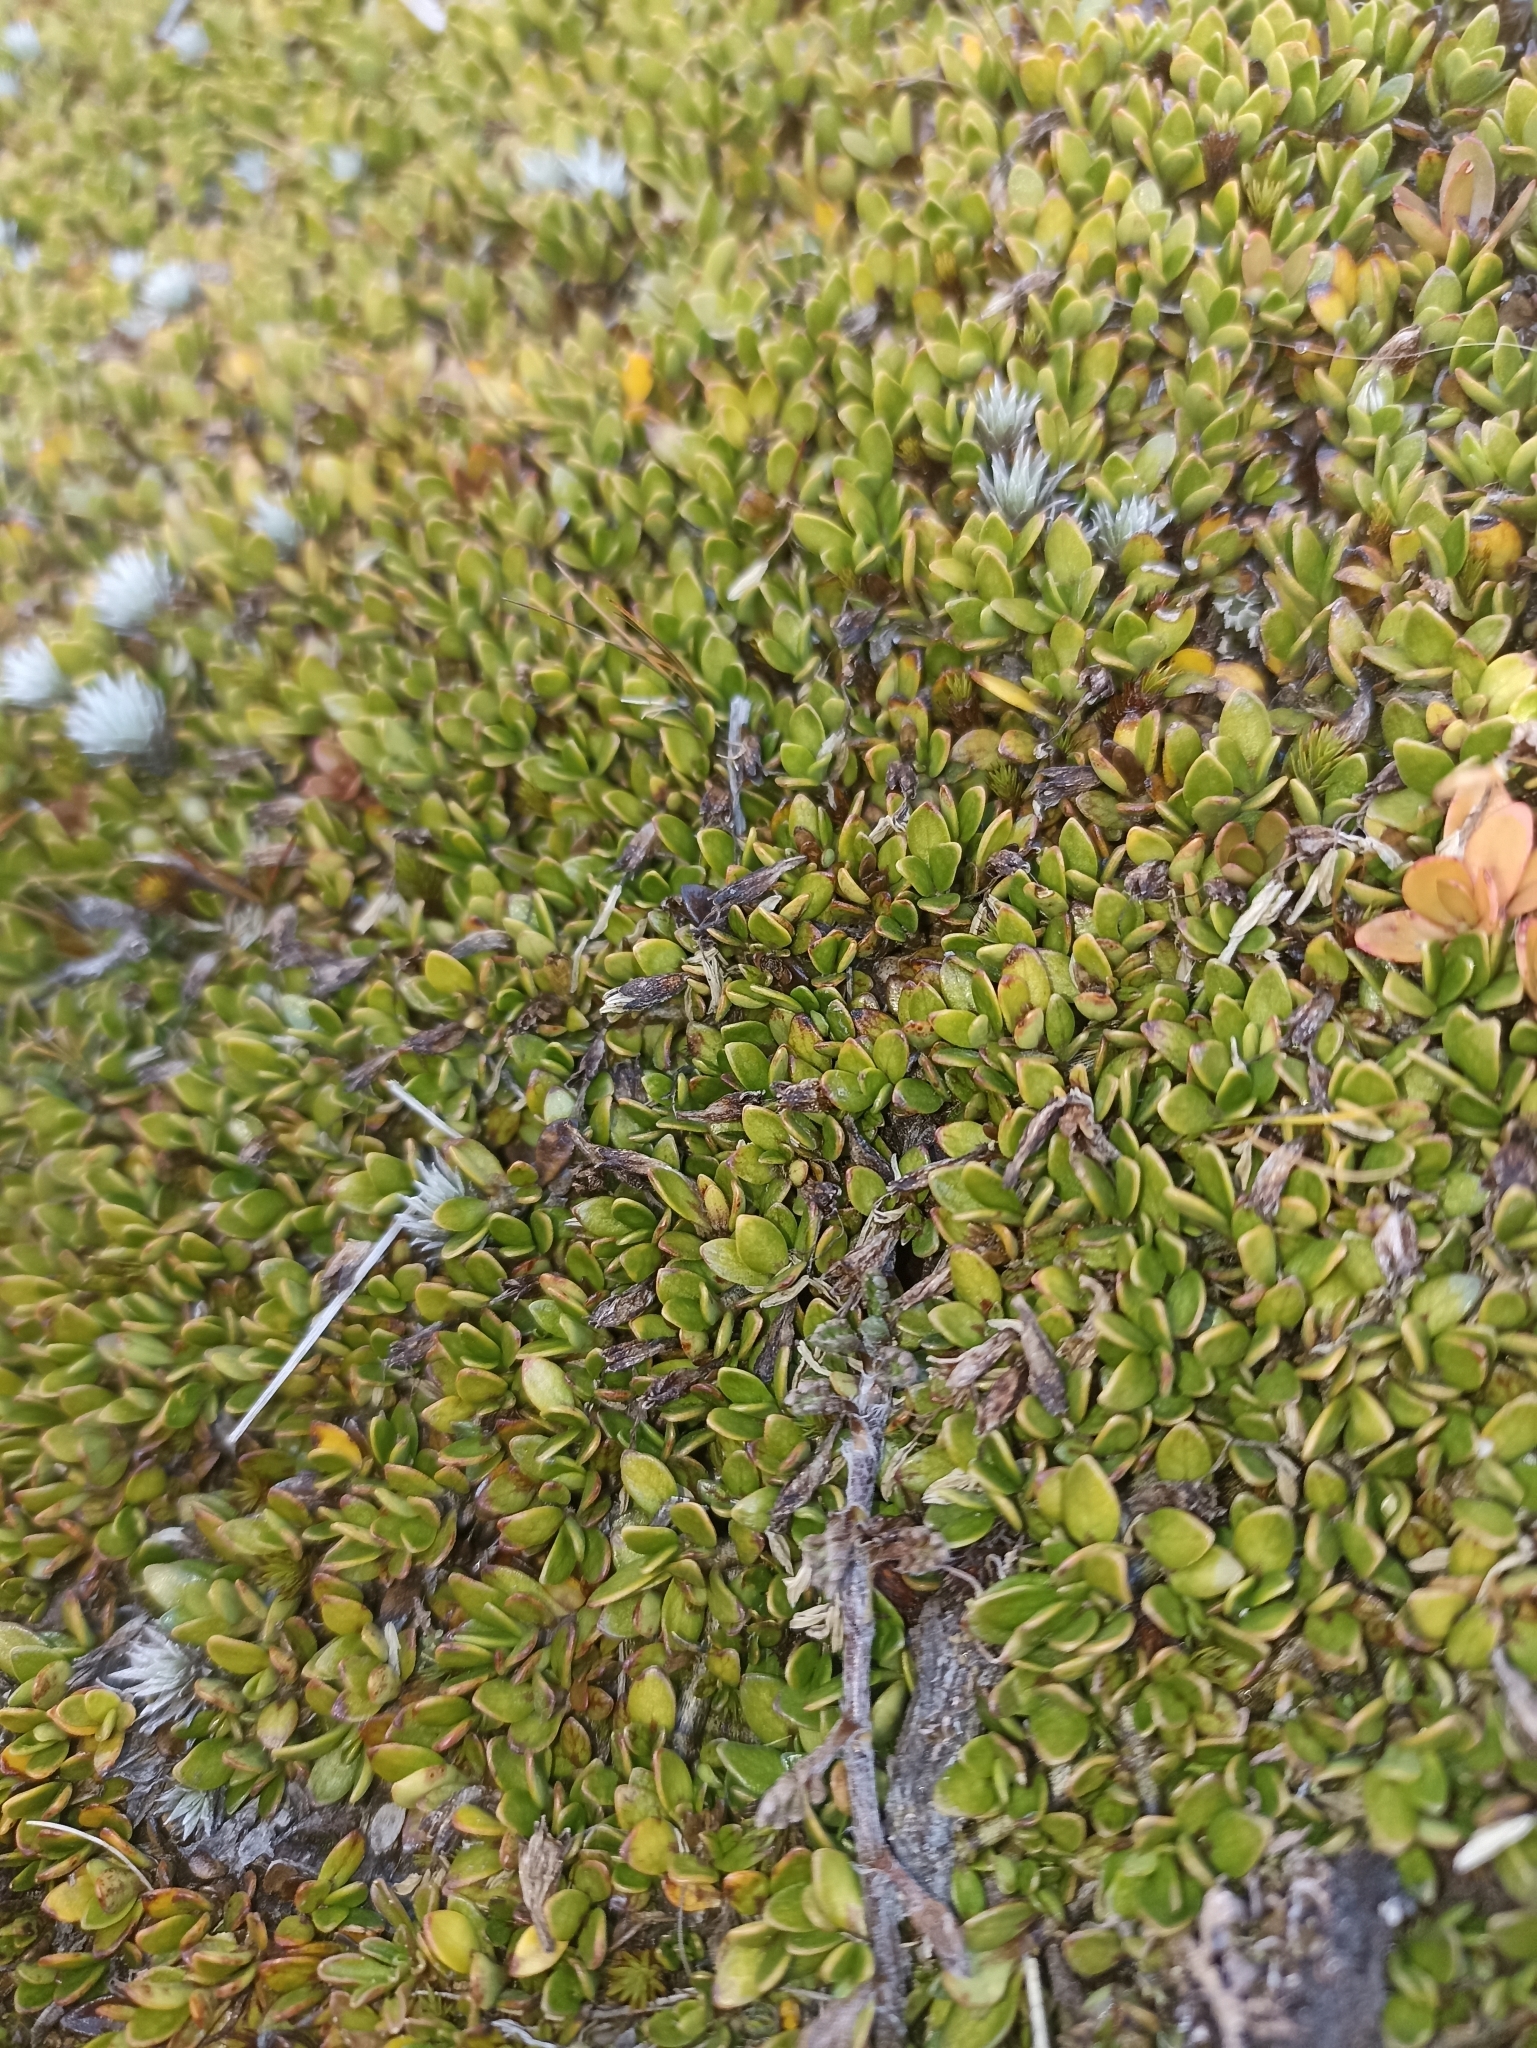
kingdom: Plantae
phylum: Tracheophyta
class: Magnoliopsida
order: Gentianales
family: Rubiaceae
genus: Coprosma
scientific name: Coprosma perpusilla
